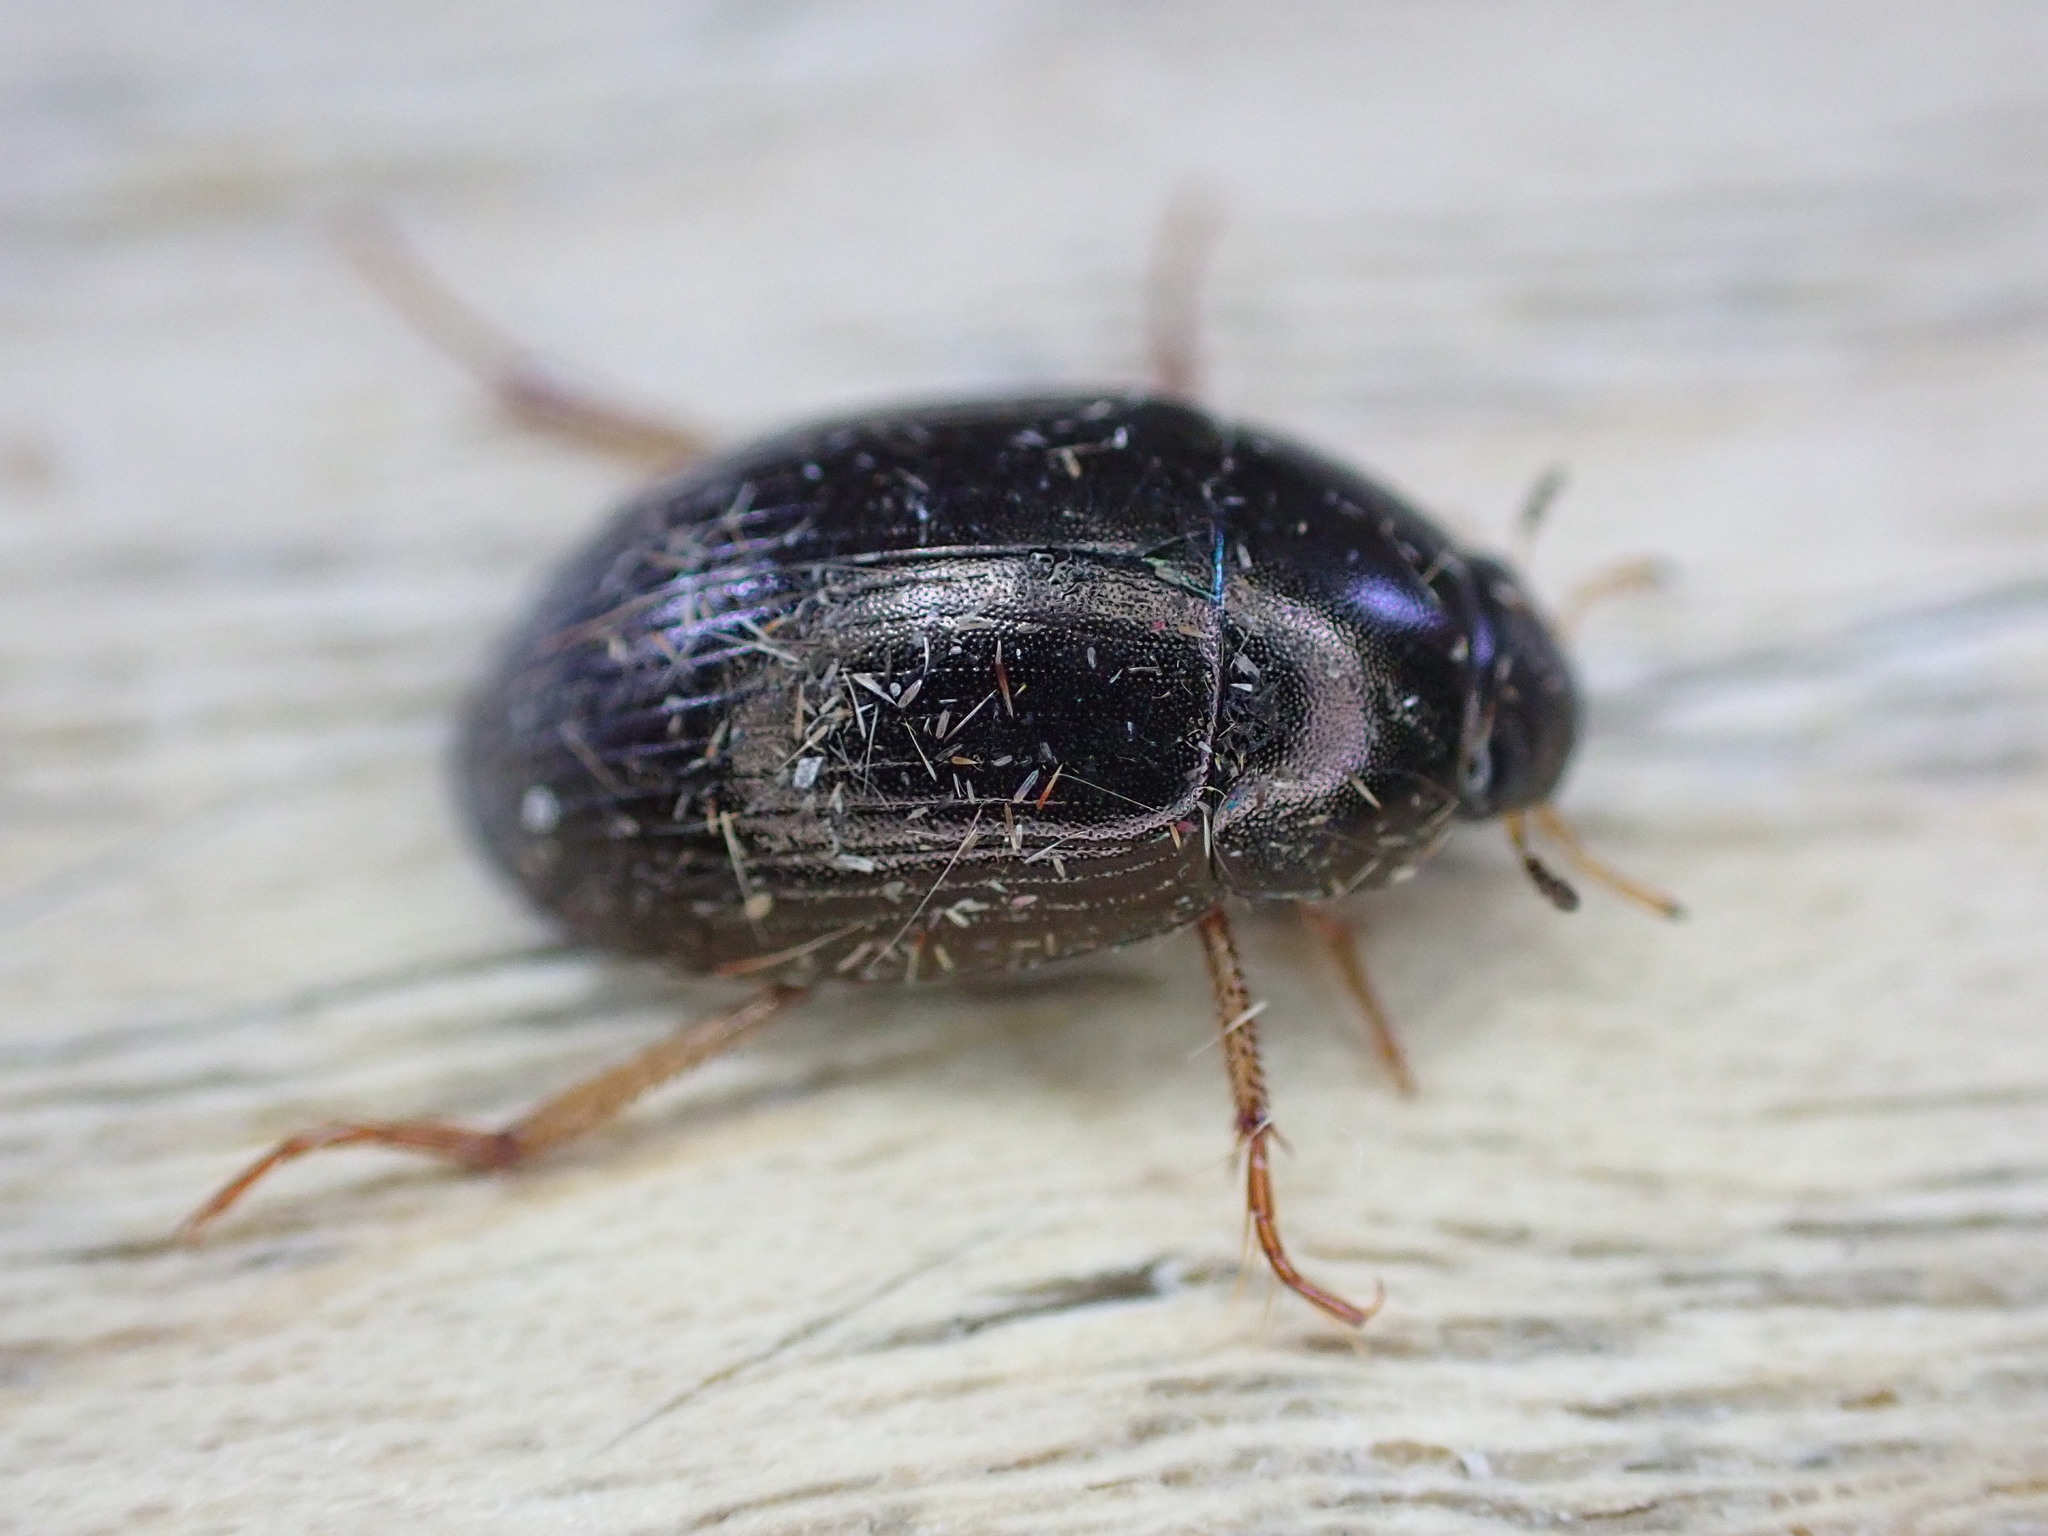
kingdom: Animalia
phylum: Arthropoda
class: Insecta
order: Coleoptera
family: Hydrophilidae
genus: Hydrobius
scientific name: Hydrobius
